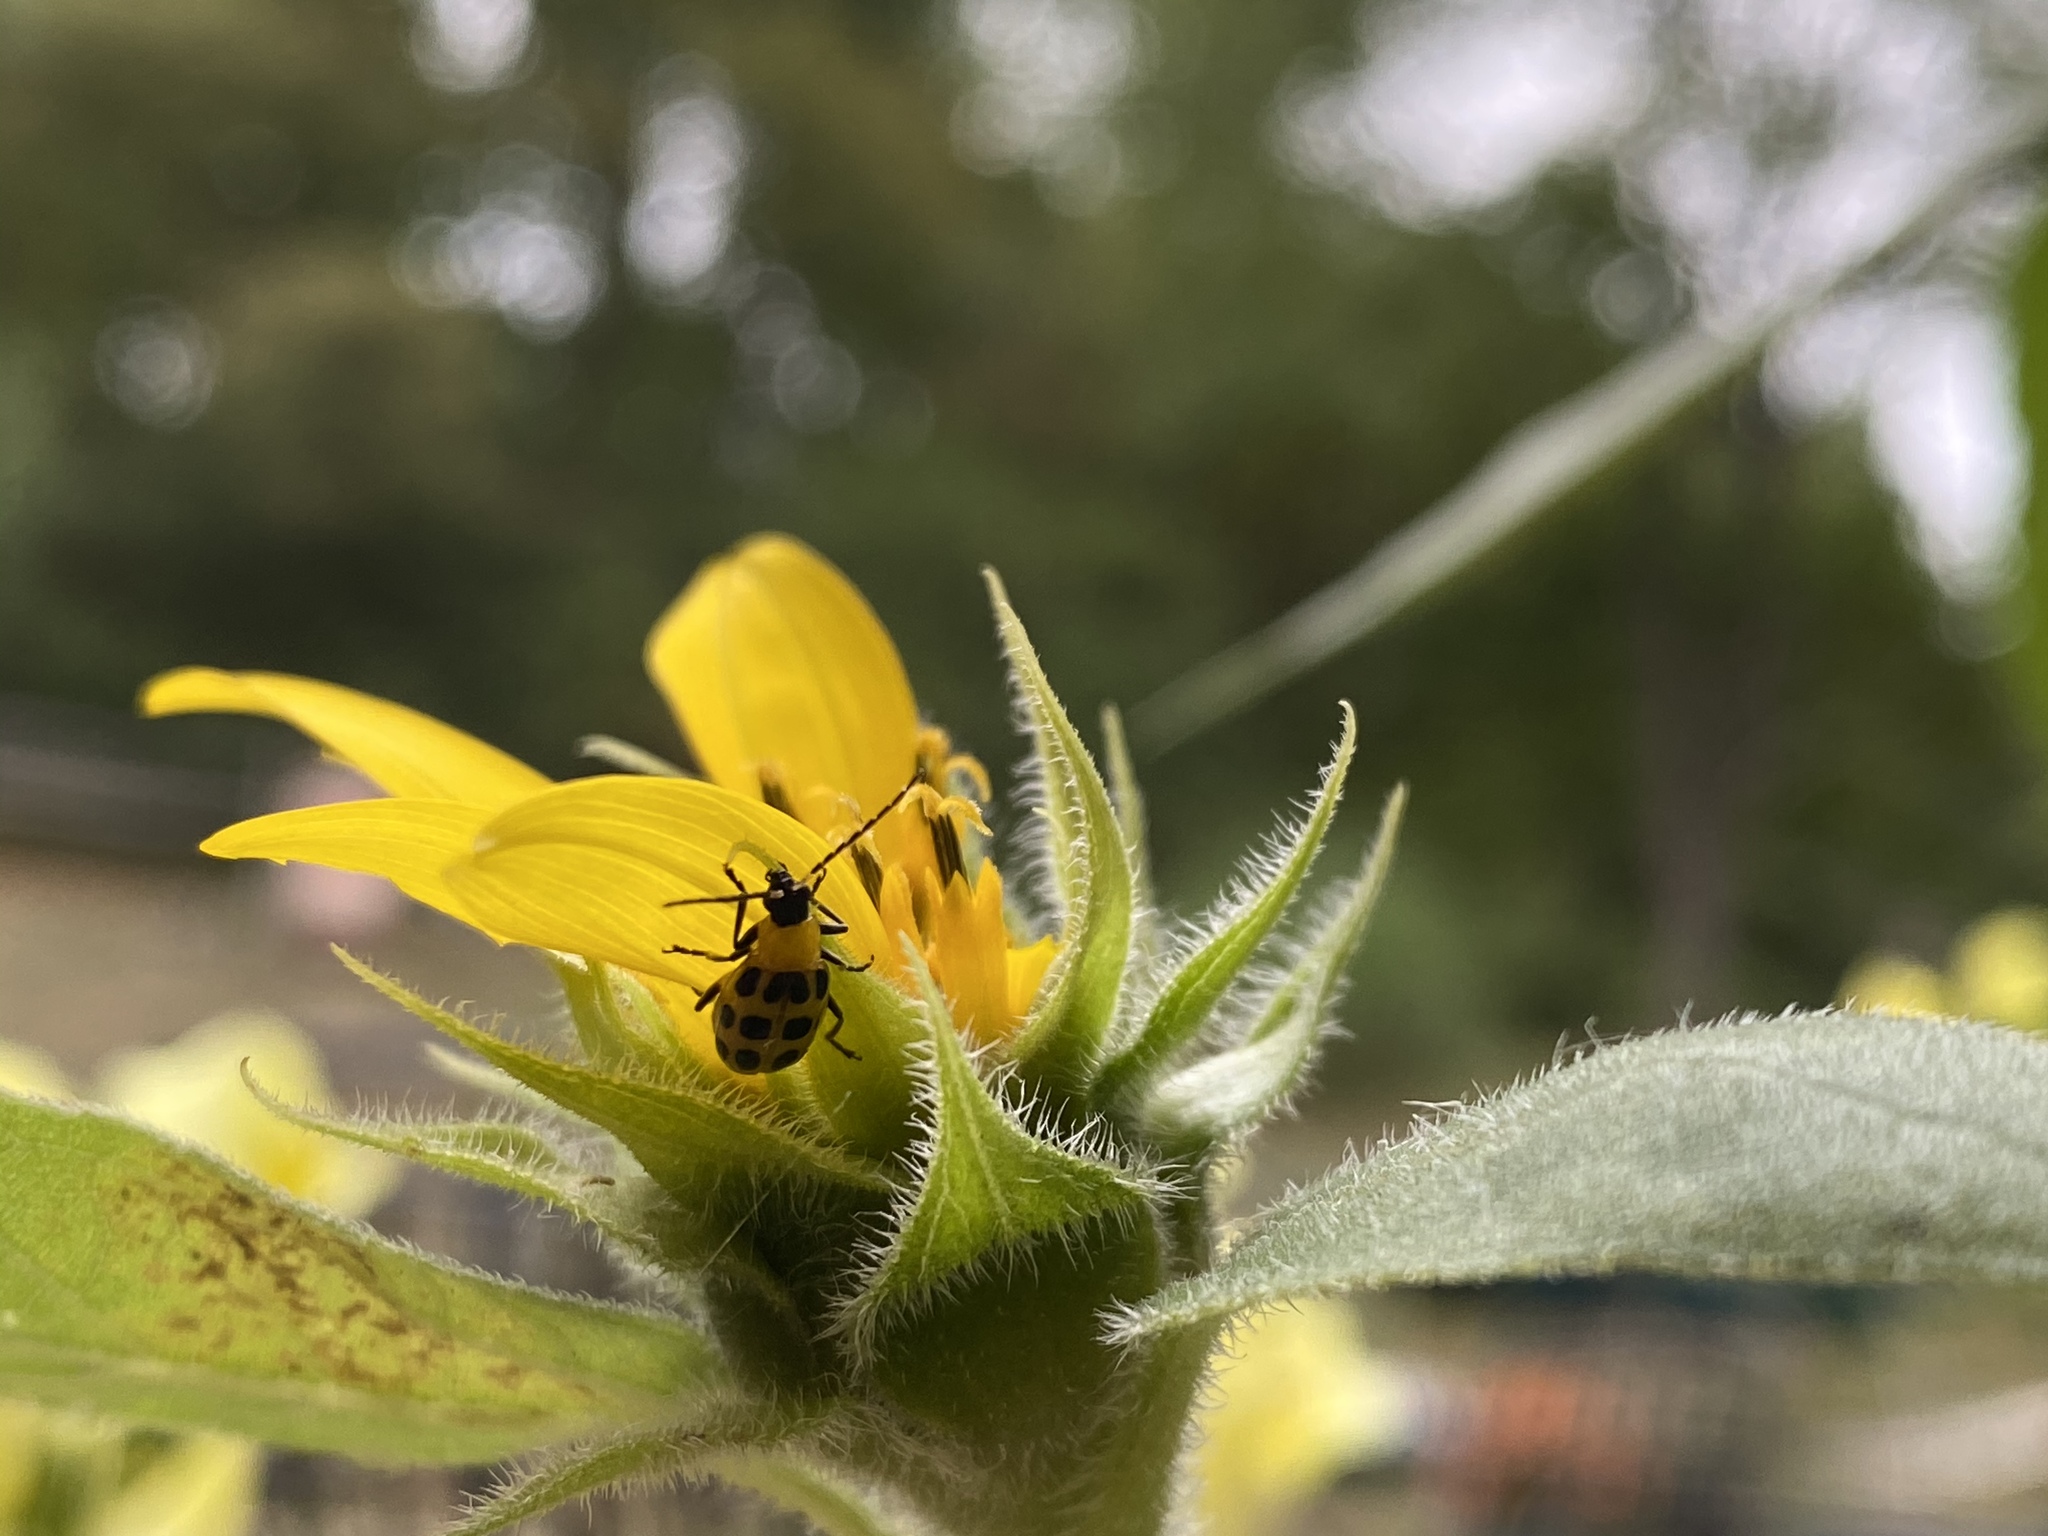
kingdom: Animalia
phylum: Arthropoda
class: Insecta
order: Coleoptera
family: Chrysomelidae
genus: Diabrotica
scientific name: Diabrotica undecimpunctata
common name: Spotted cucumber beetle
